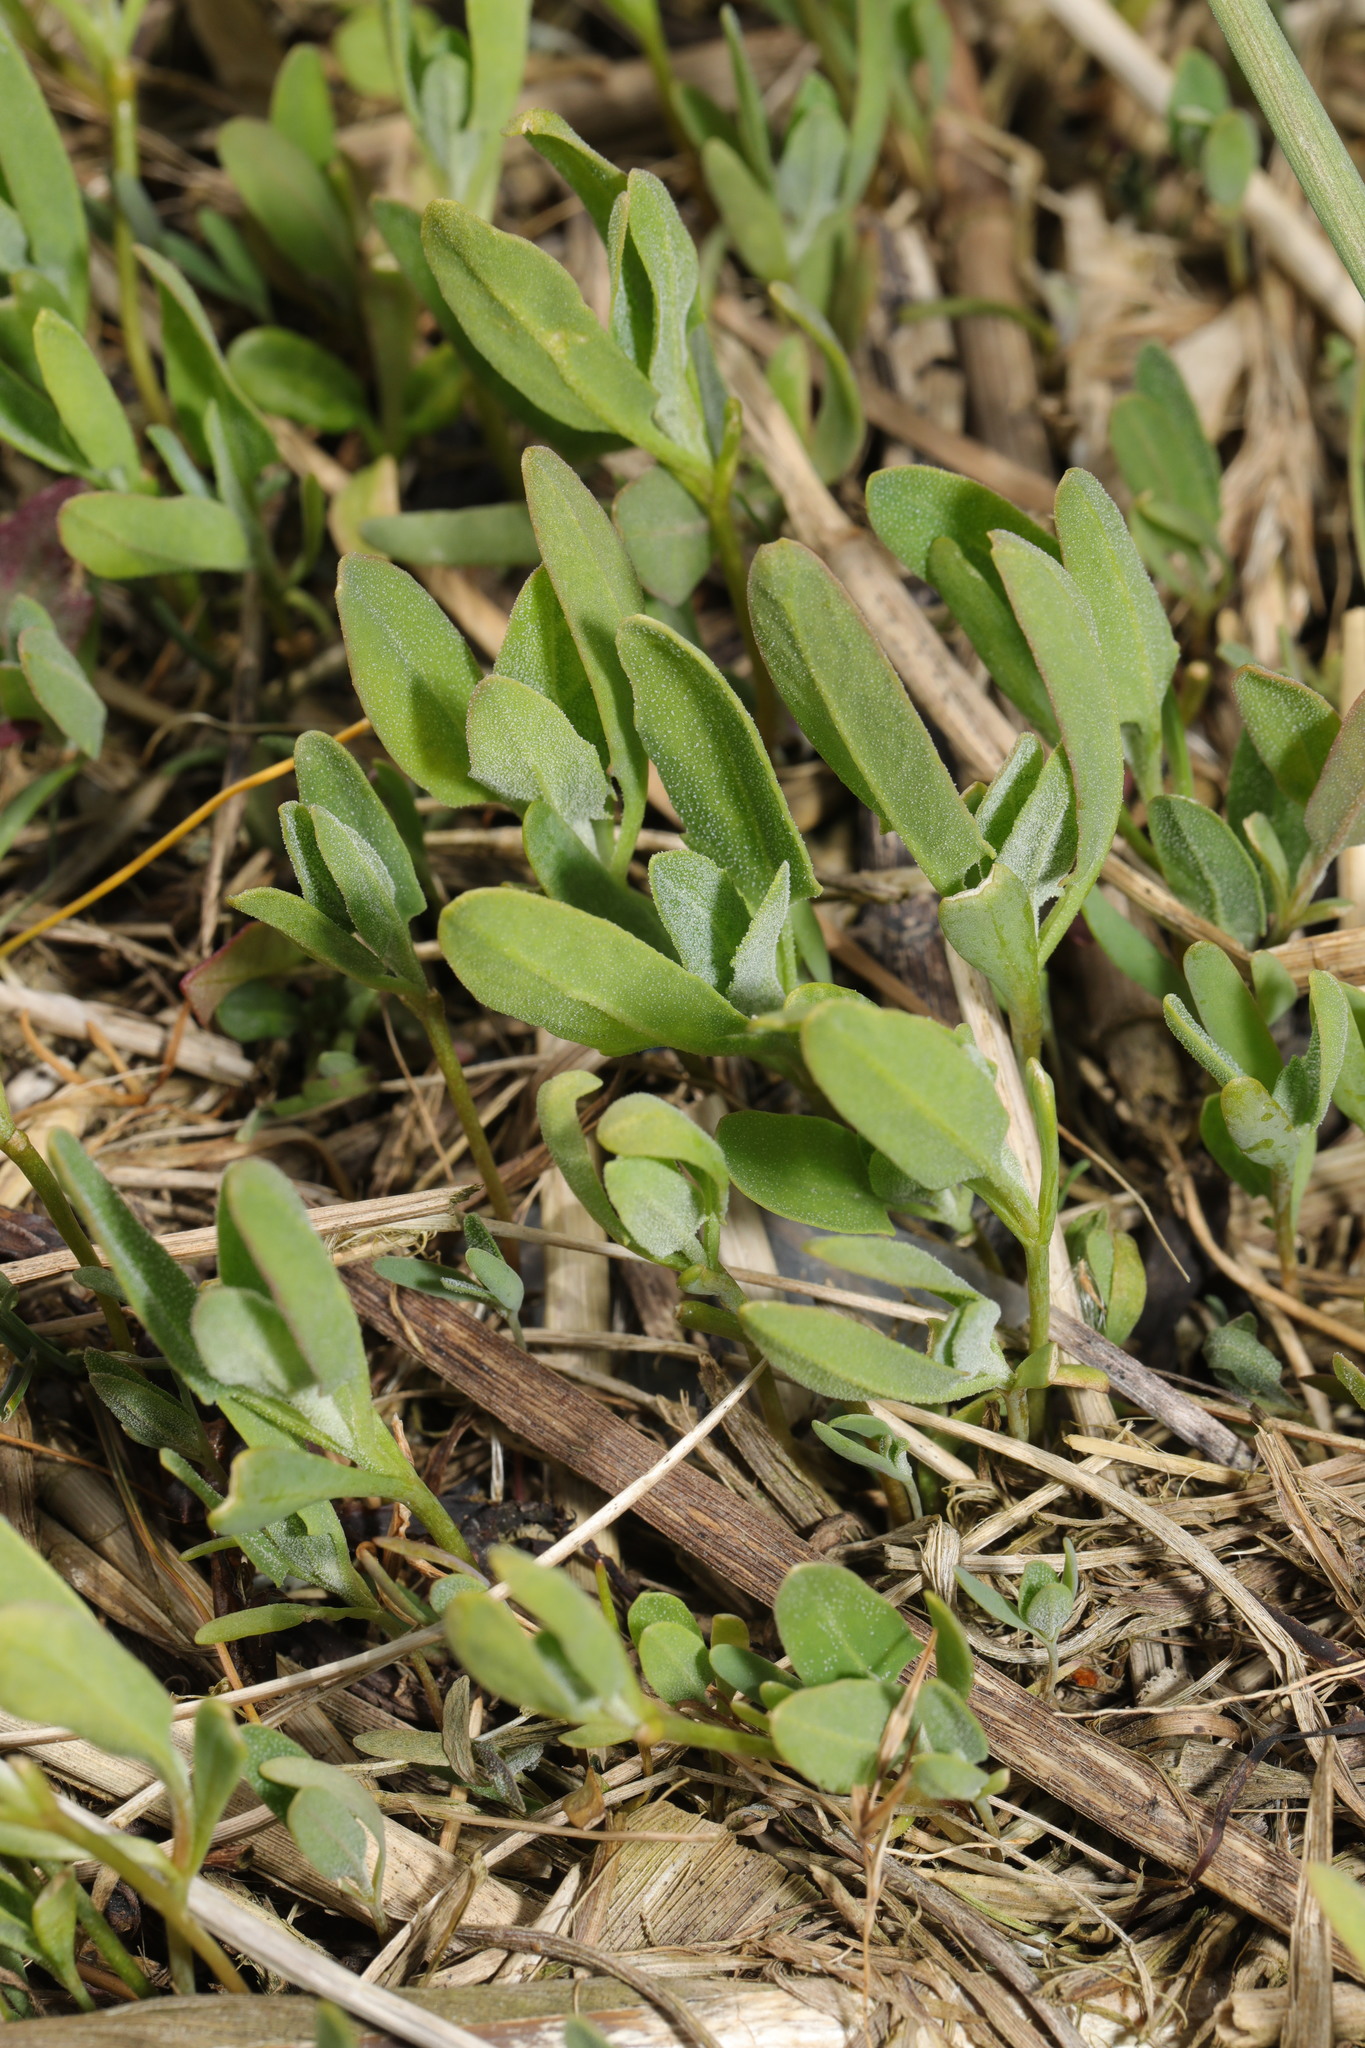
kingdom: Plantae
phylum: Tracheophyta
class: Magnoliopsida
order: Caryophyllales
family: Amaranthaceae
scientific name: Amaranthaceae
